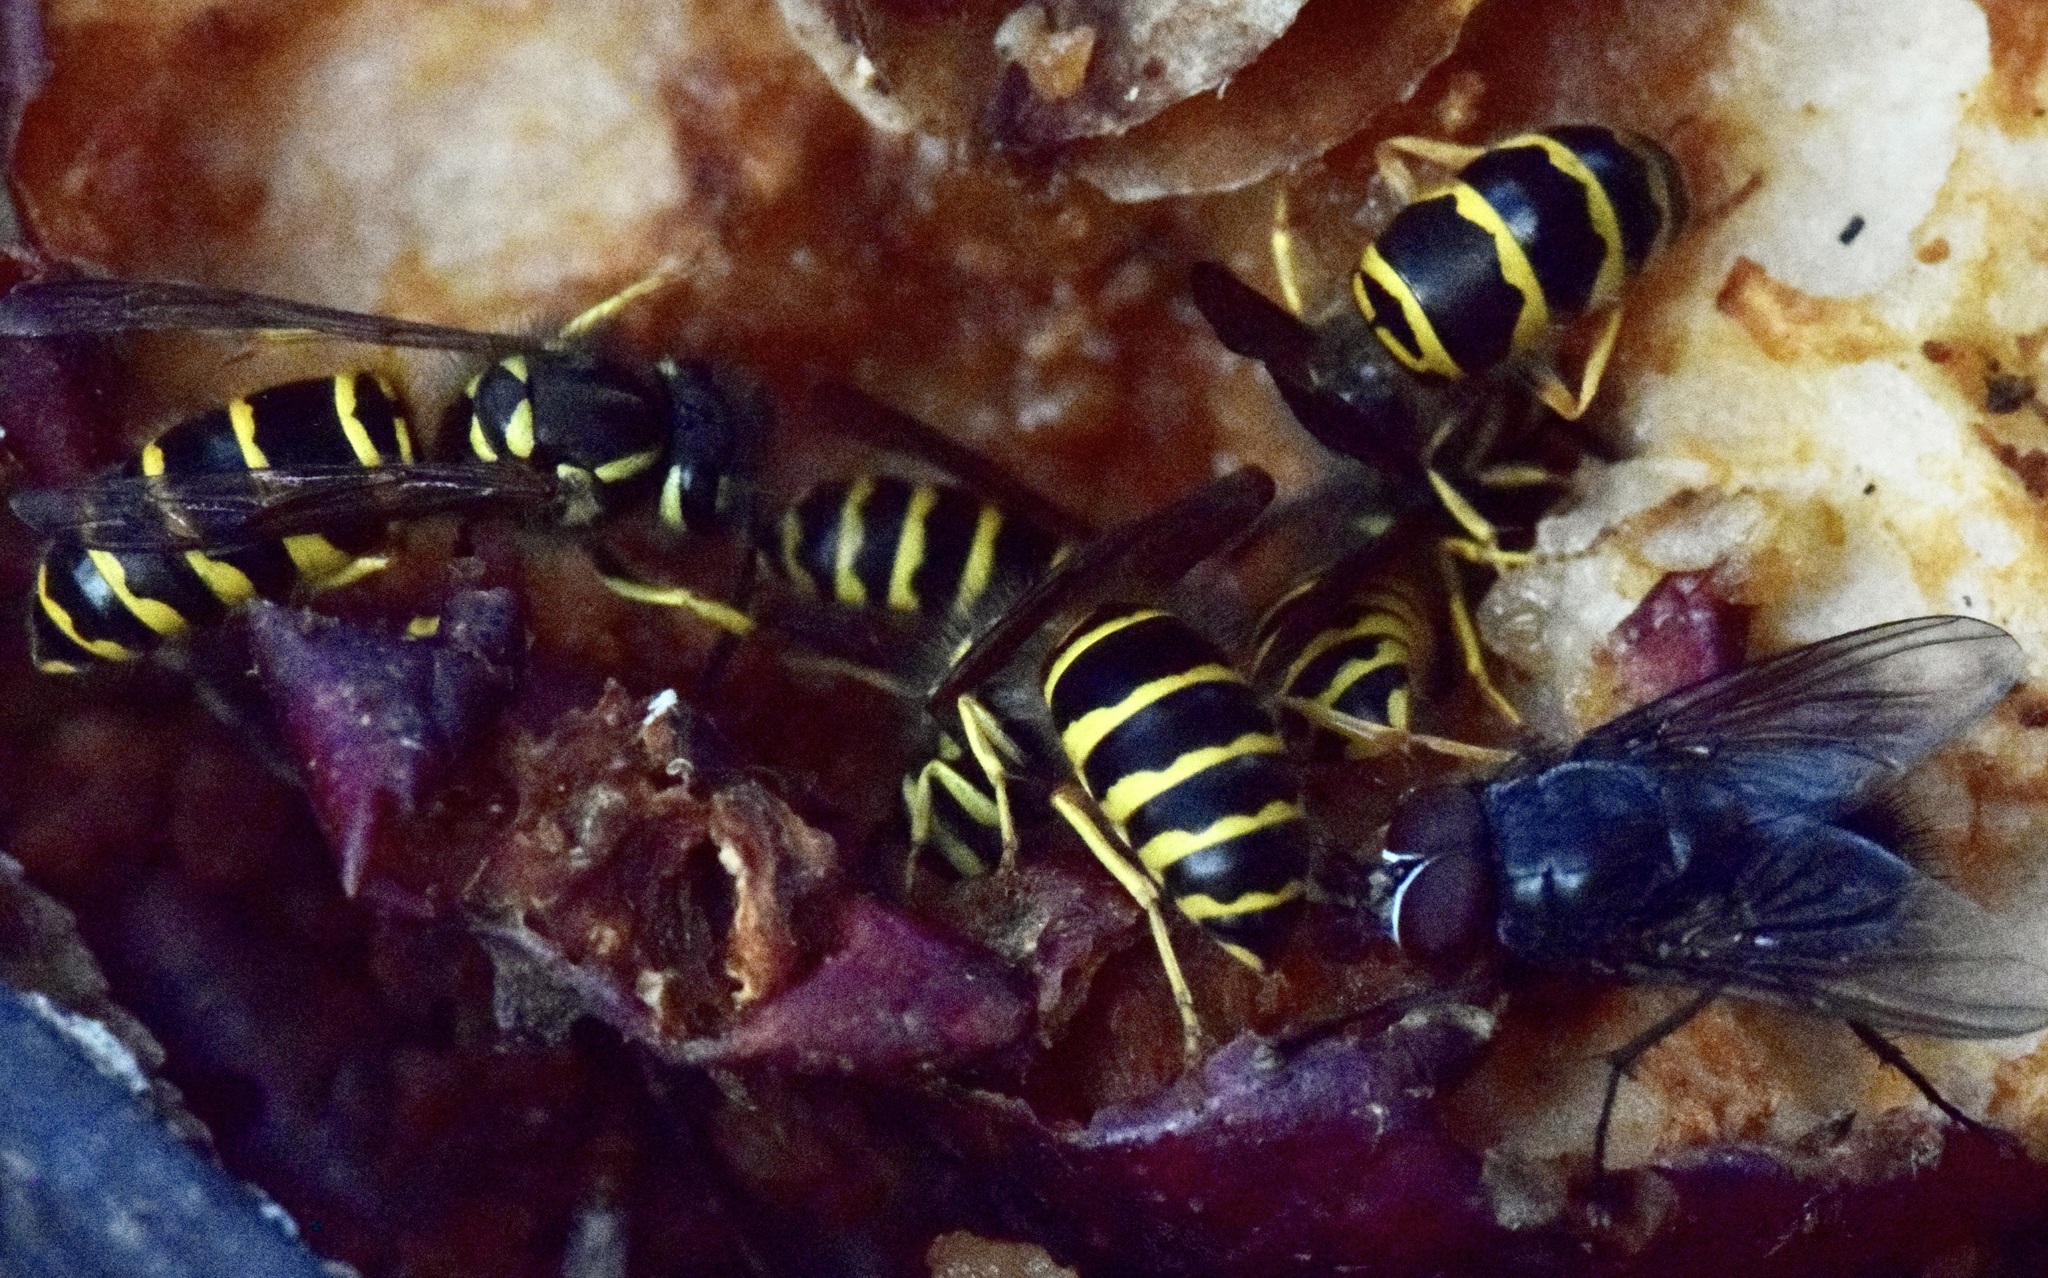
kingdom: Animalia
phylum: Arthropoda
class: Insecta
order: Hymenoptera
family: Vespidae
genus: Vespula
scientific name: Vespula maculifrons
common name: Eastern yellowjacket
